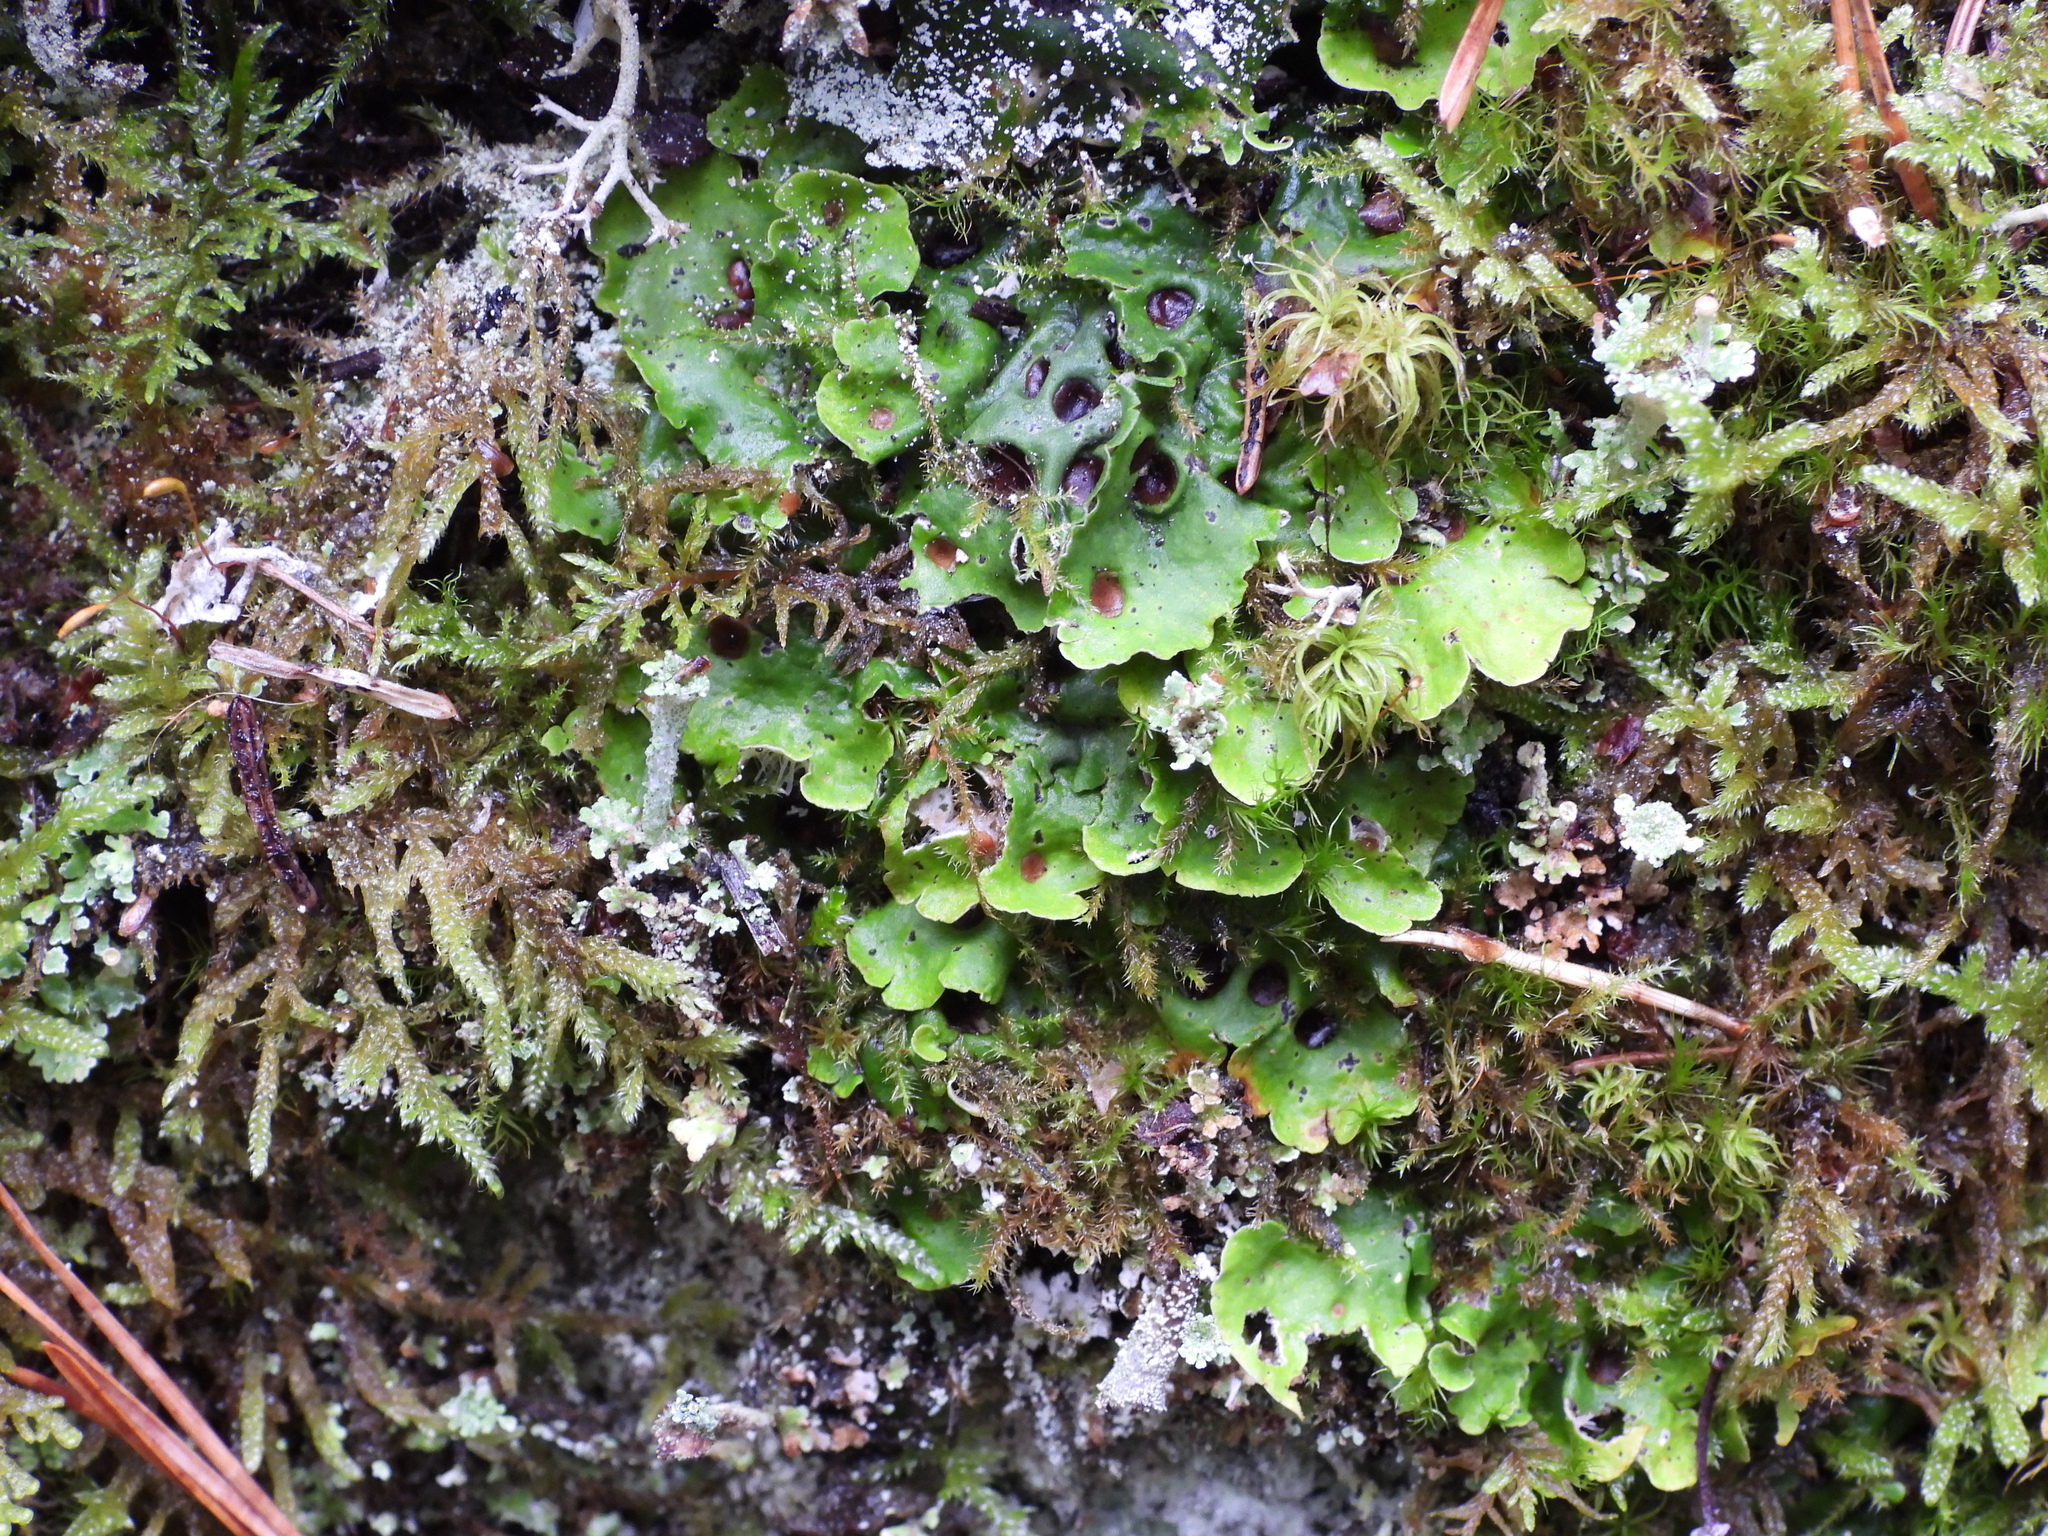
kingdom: Fungi
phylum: Ascomycota
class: Lecanoromycetes
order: Peltigerales
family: Peltigeraceae
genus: Solorina
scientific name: Solorina saccata
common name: Common chocolate chip lichen
